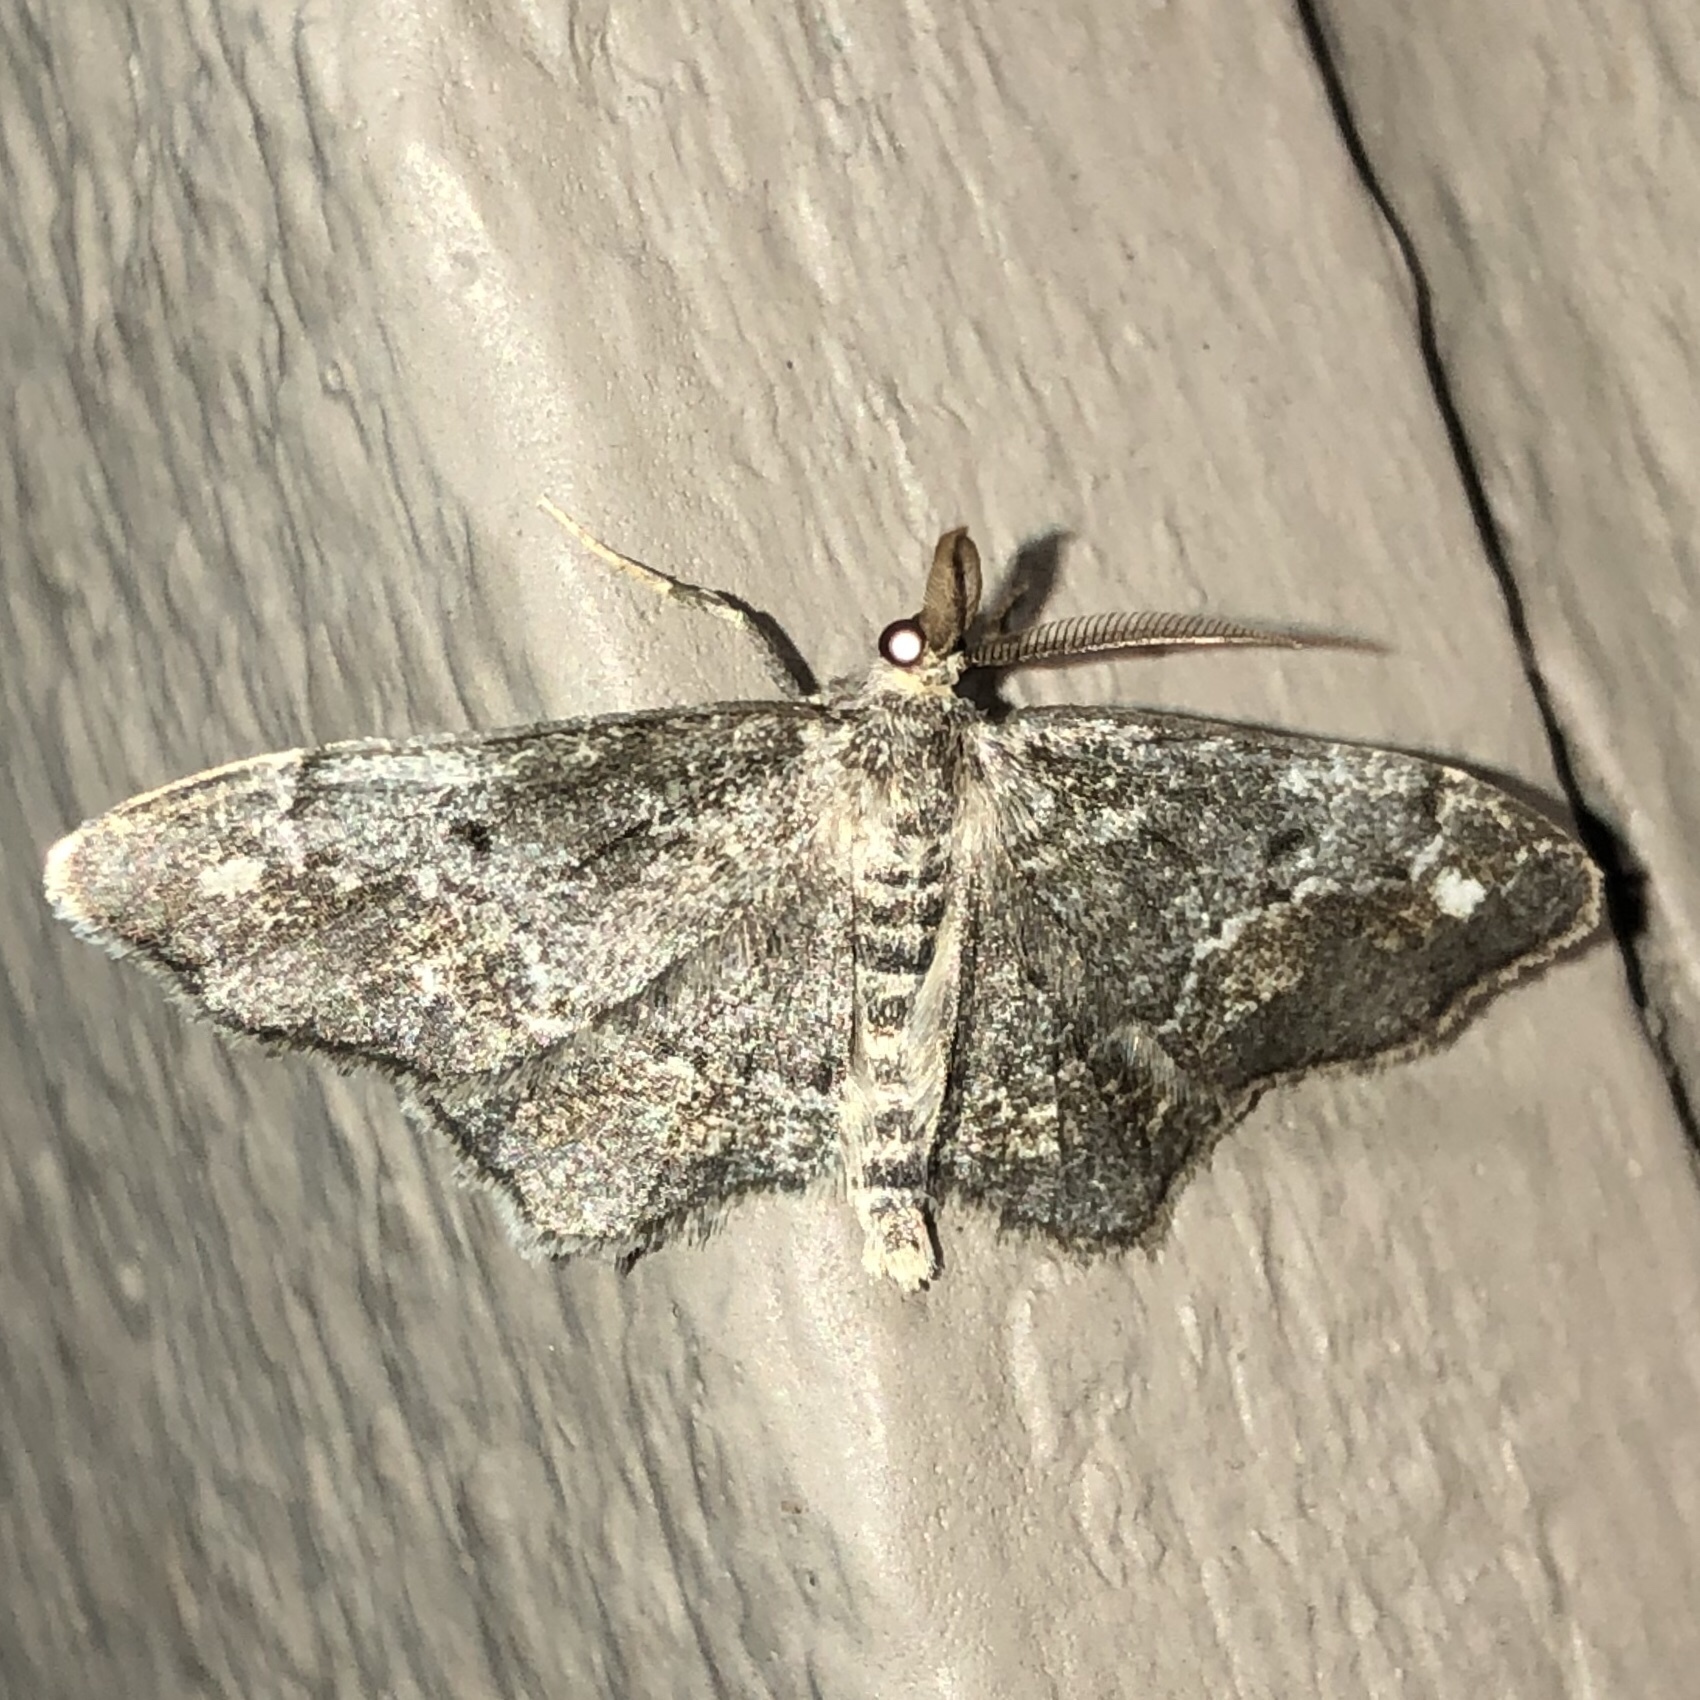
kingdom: Animalia
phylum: Arthropoda
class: Insecta
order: Lepidoptera
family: Geometridae
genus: Hypagyrtis
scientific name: Hypagyrtis unipunctata
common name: One-spotted variant
